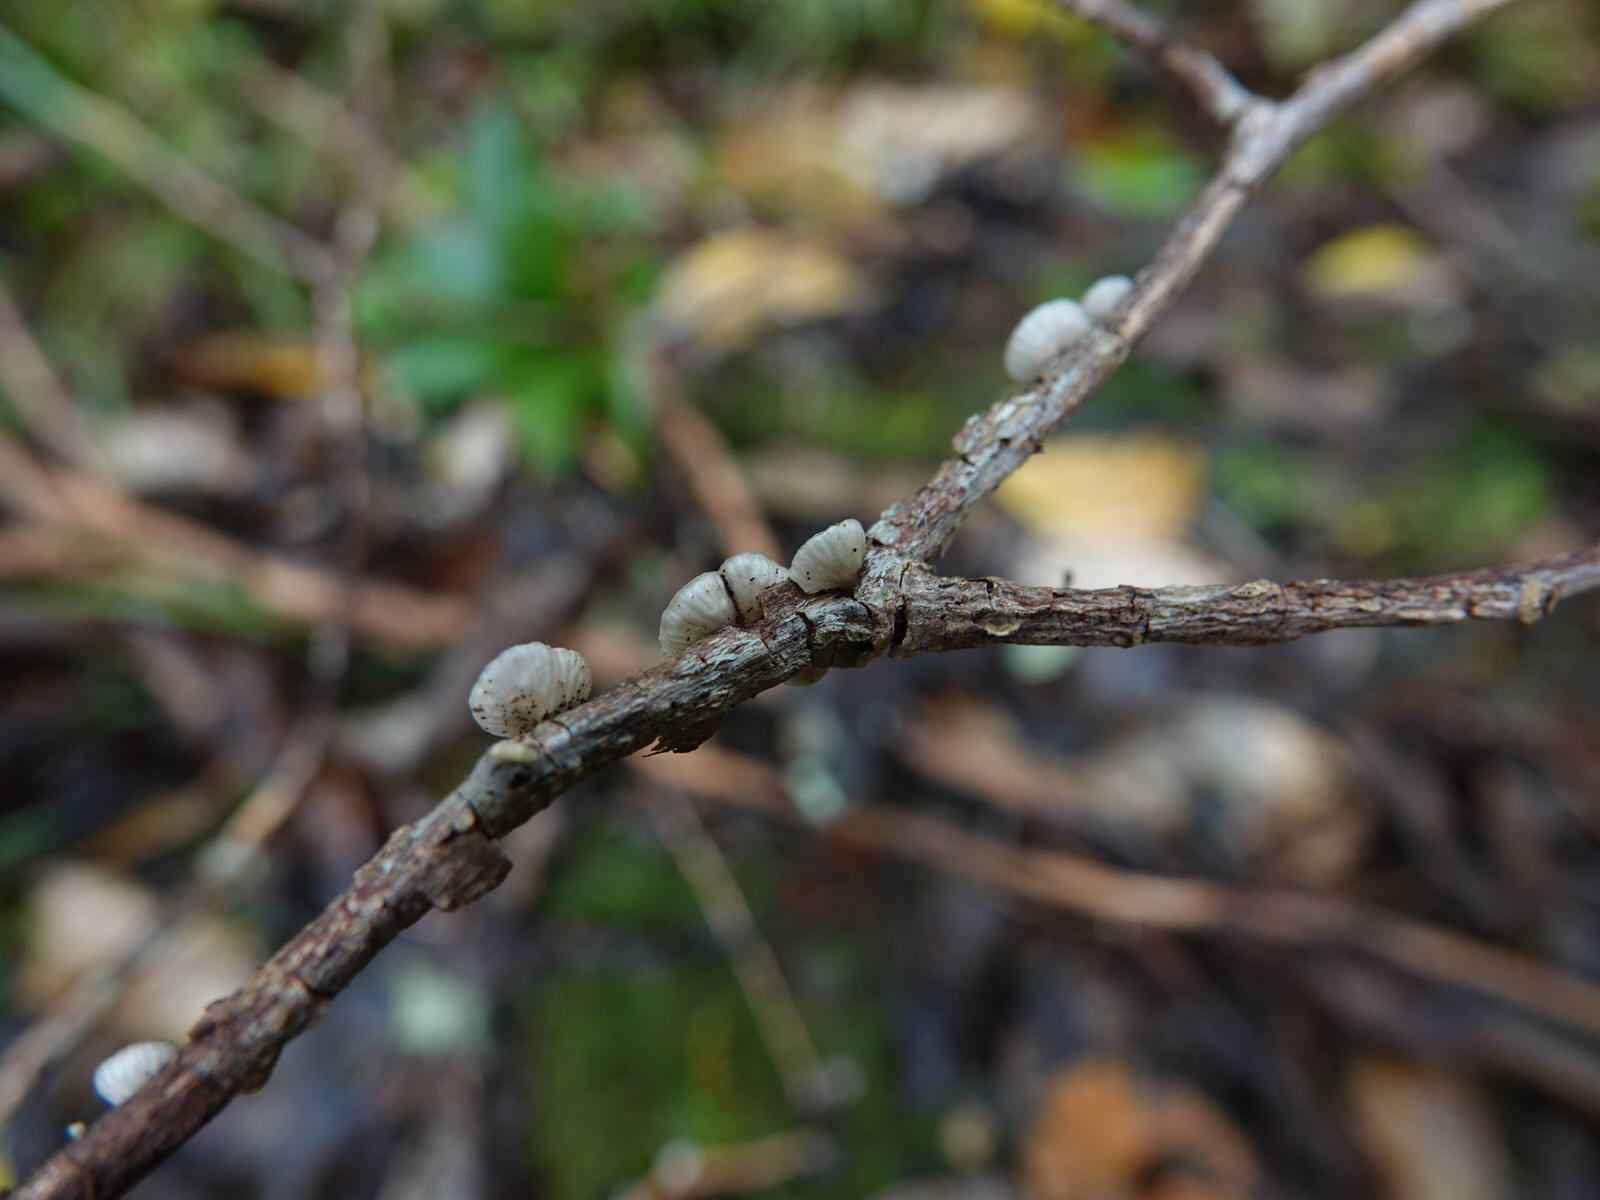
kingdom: Fungi
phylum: Basidiomycota
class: Agaricomycetes
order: Agaricales
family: Pleurotaceae
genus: Hohenbuehelia
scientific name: Hohenbuehelia
